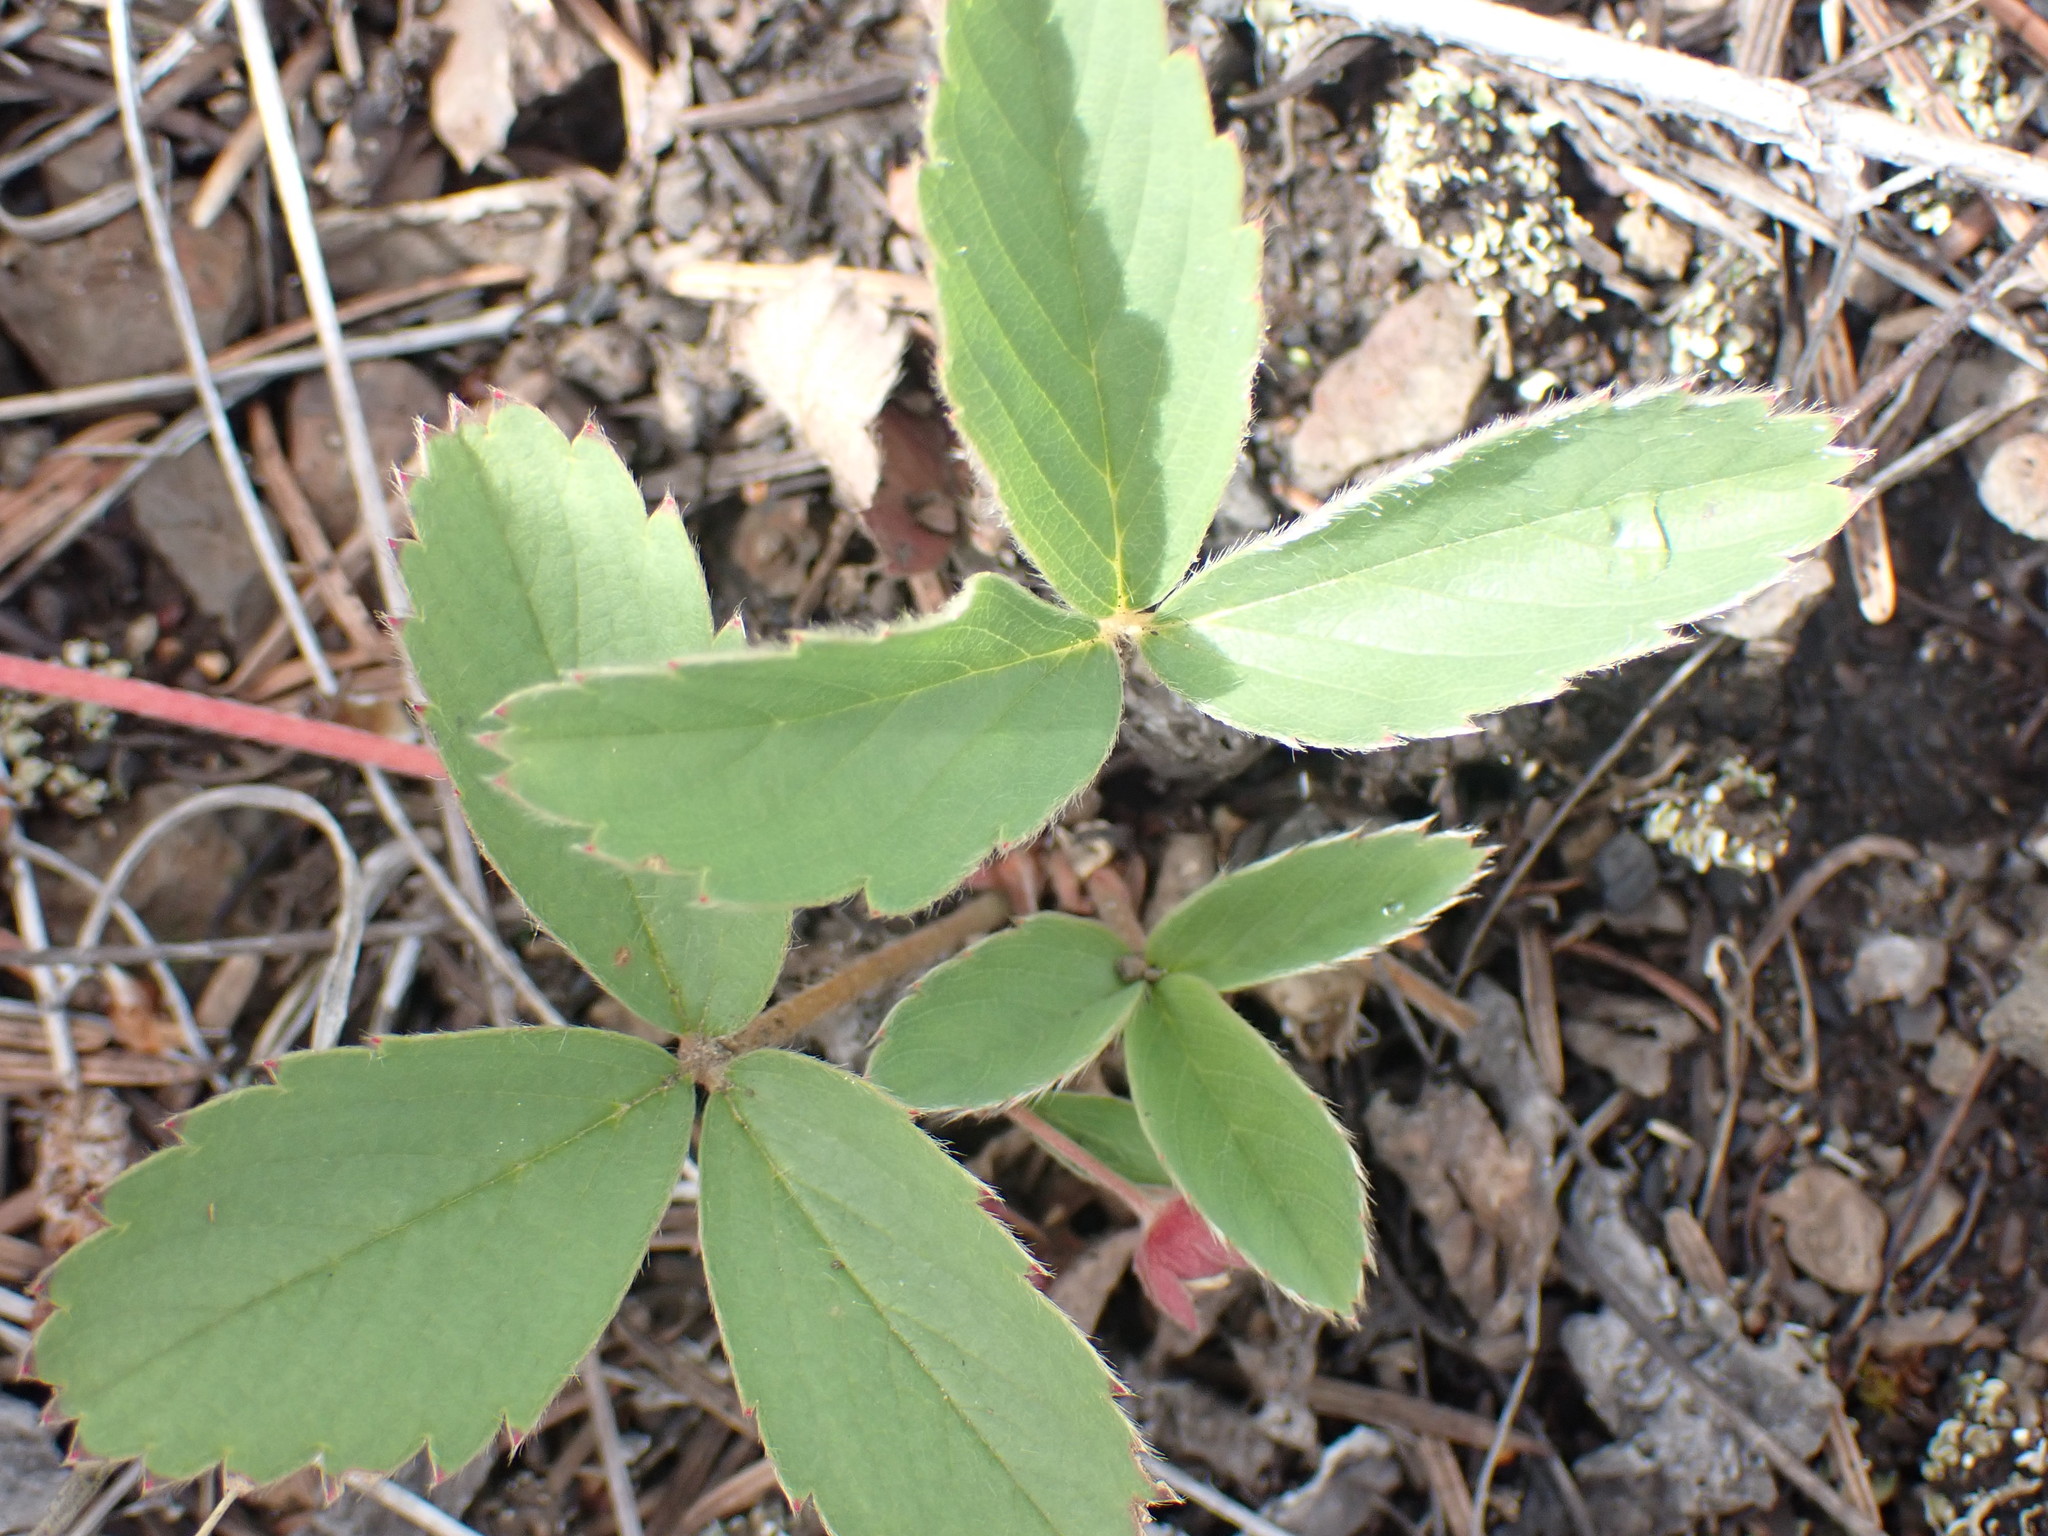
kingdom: Plantae
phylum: Tracheophyta
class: Magnoliopsida
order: Rosales
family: Rosaceae
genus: Fragaria
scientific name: Fragaria virginiana
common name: Thickleaved wild strawberry
